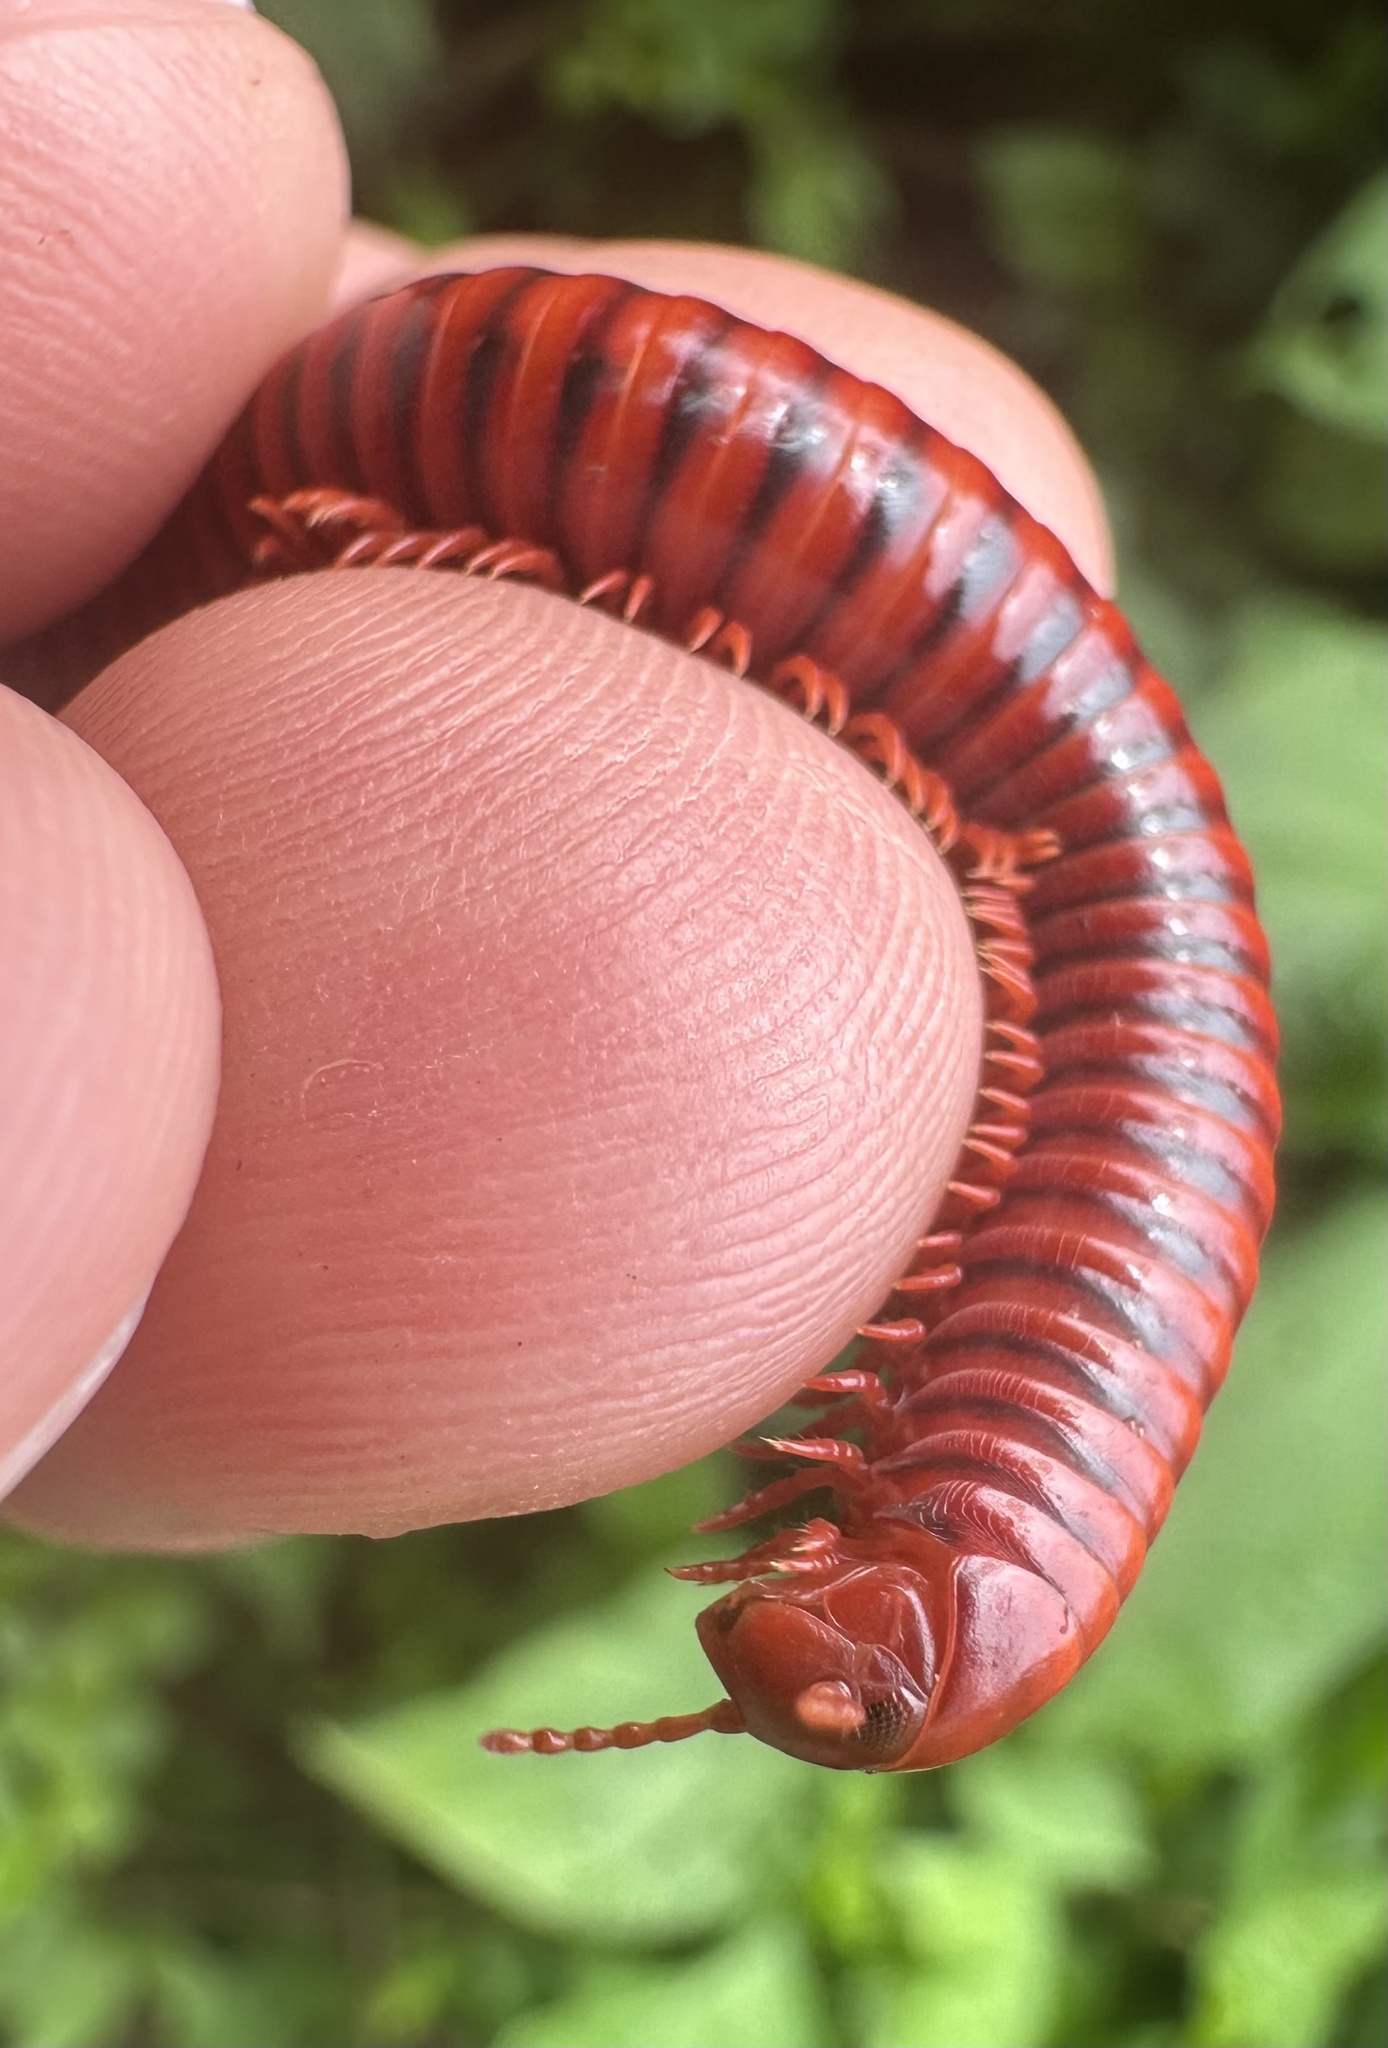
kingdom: Animalia
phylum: Arthropoda
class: Diplopoda
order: Spirobolida
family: Pachybolidae
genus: Centrobolus
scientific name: Centrobolus richardi
